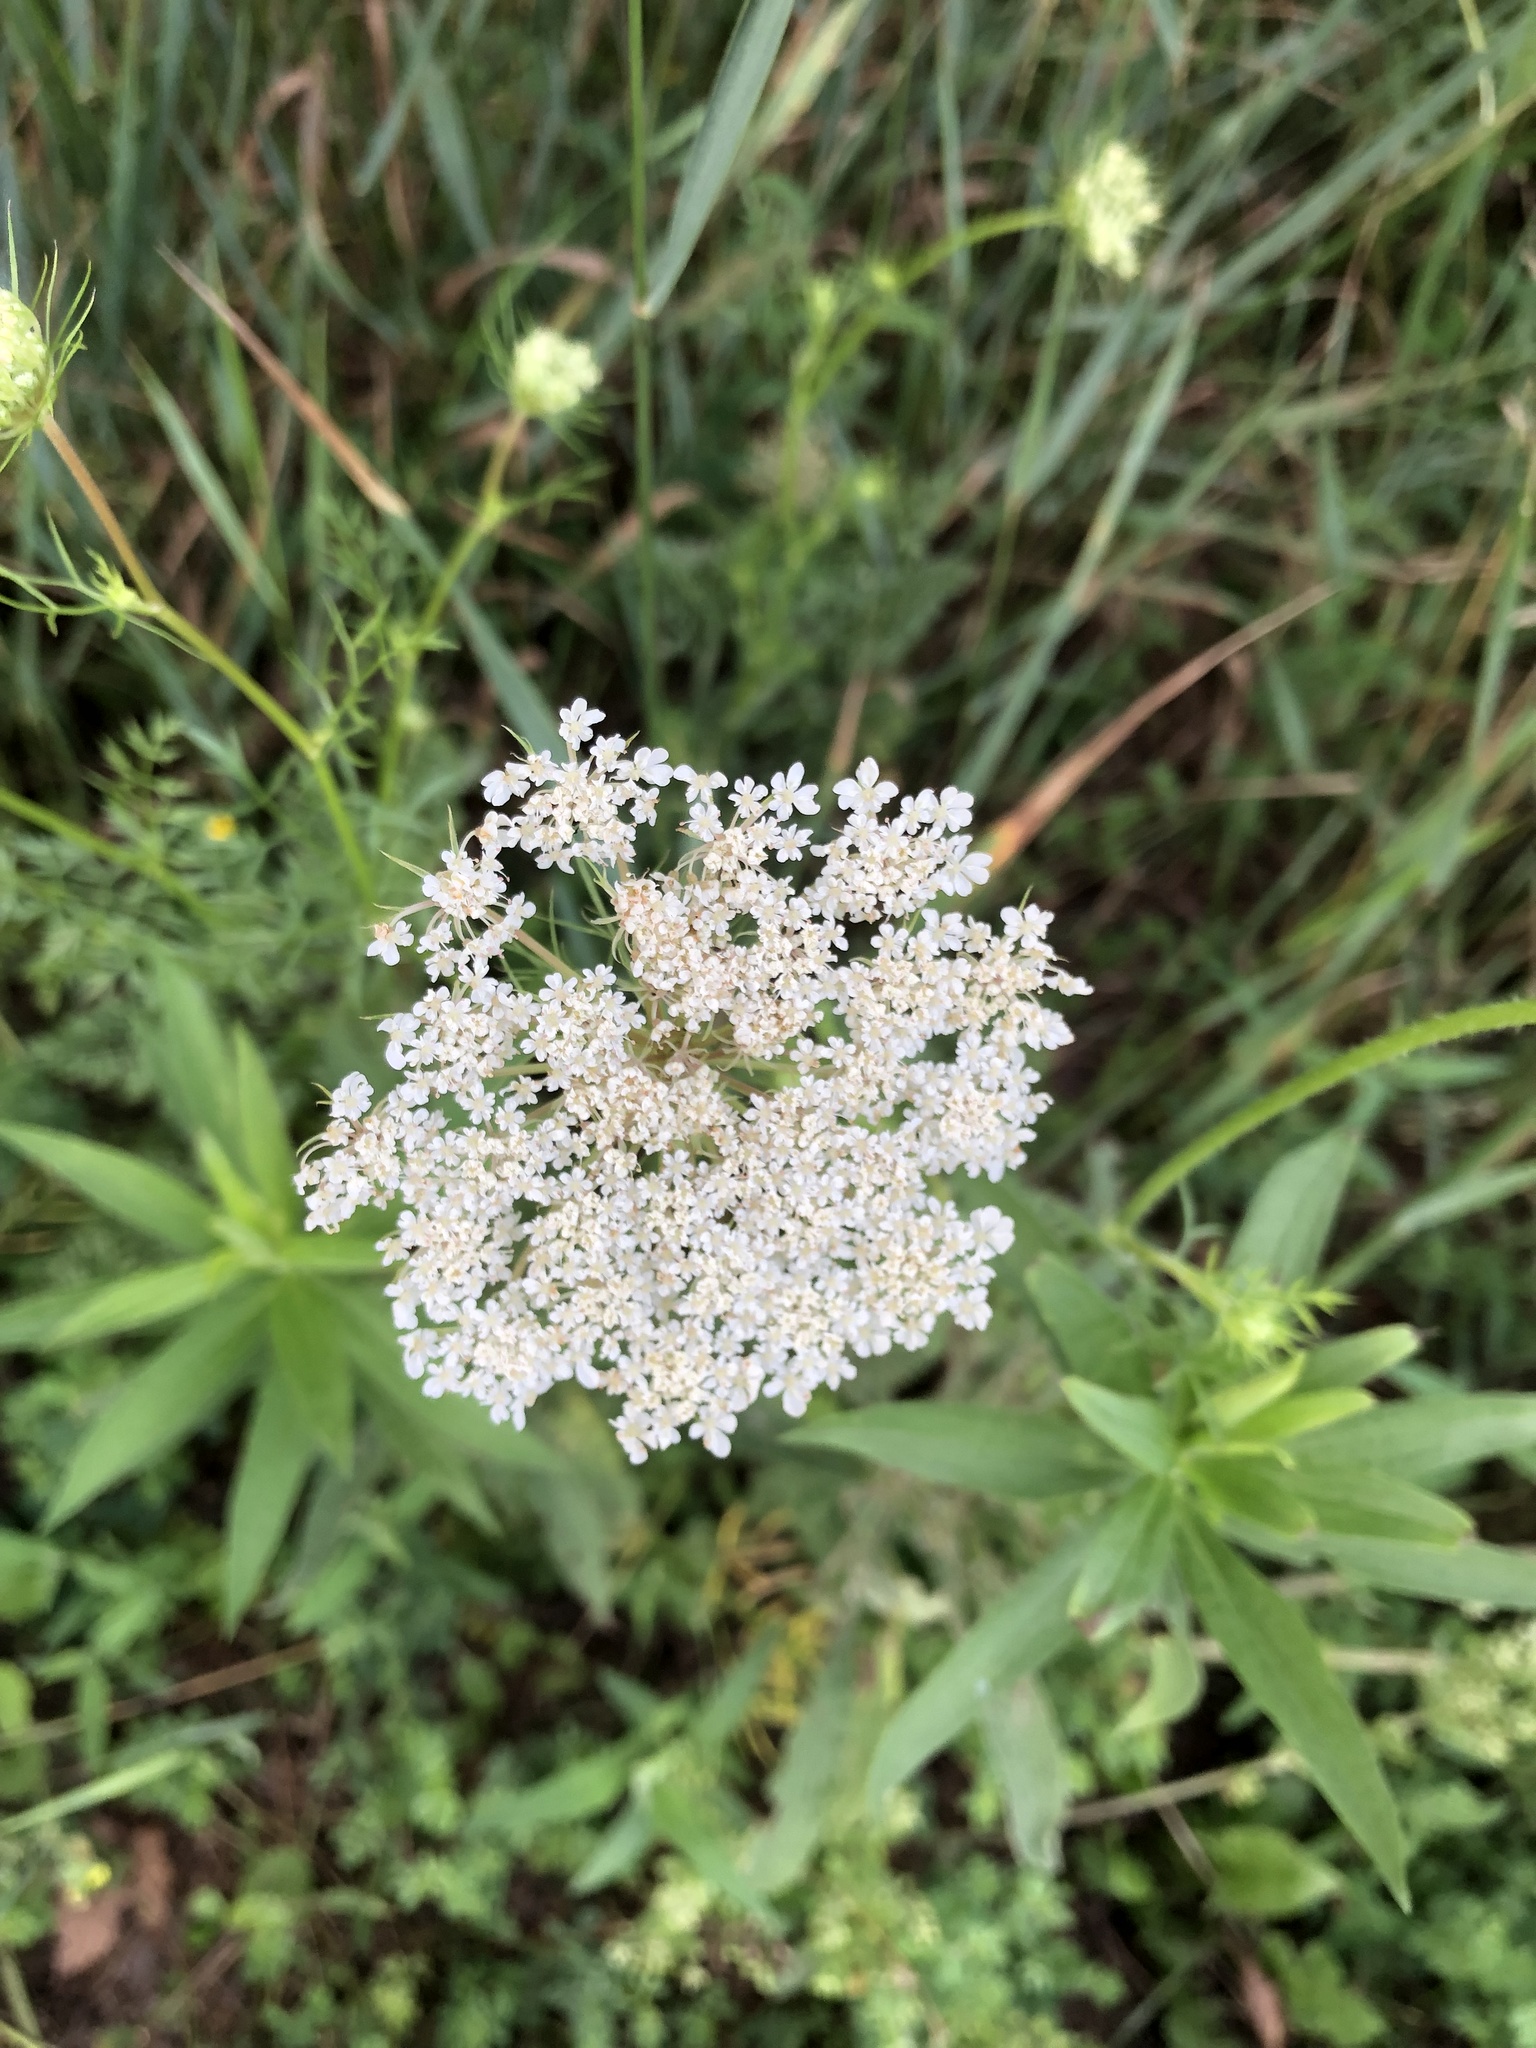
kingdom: Plantae
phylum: Tracheophyta
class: Magnoliopsida
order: Apiales
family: Apiaceae
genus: Daucus
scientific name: Daucus carota
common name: Wild carrot
